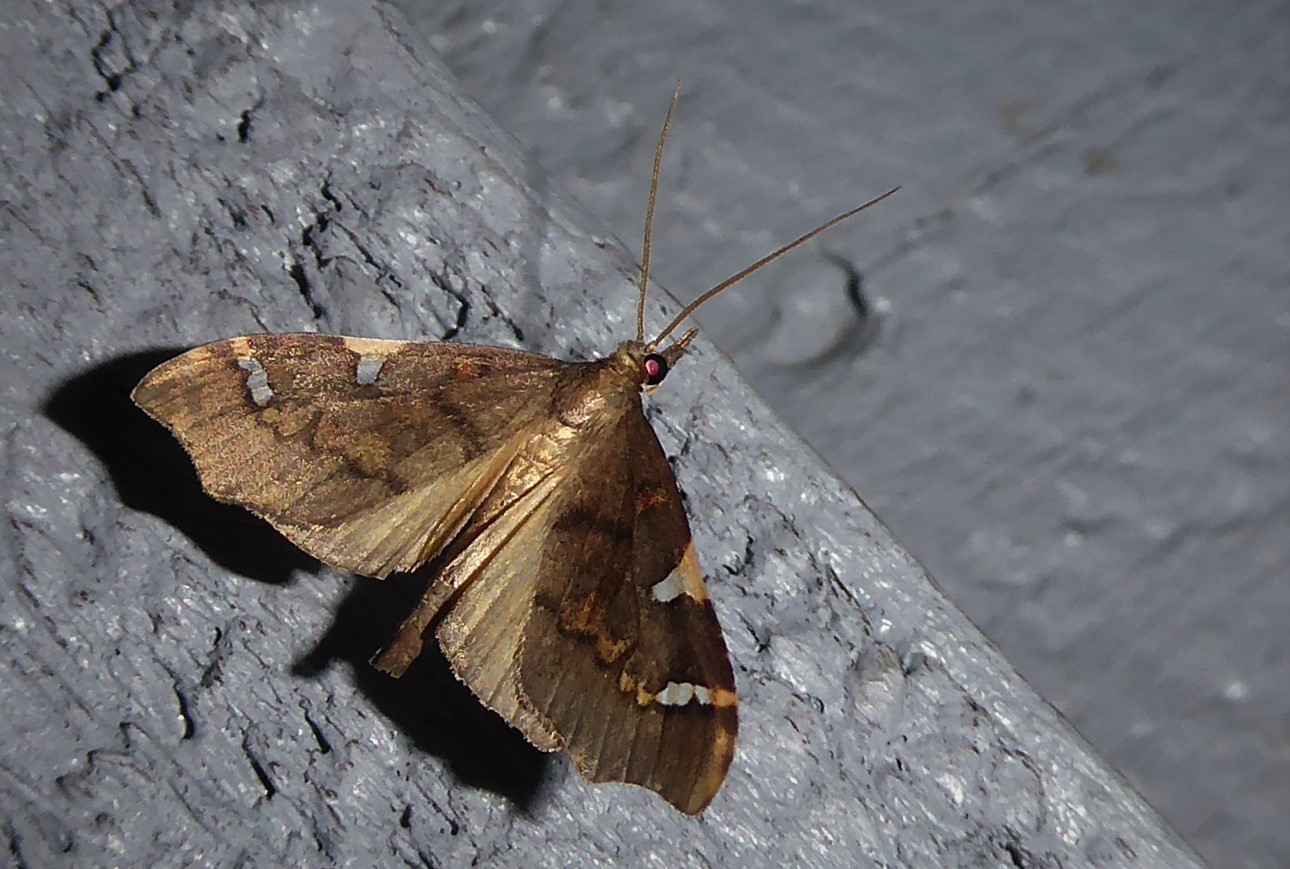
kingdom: Animalia
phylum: Arthropoda
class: Insecta
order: Lepidoptera
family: Crambidae
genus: Deana
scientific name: Deana hybreasalis
